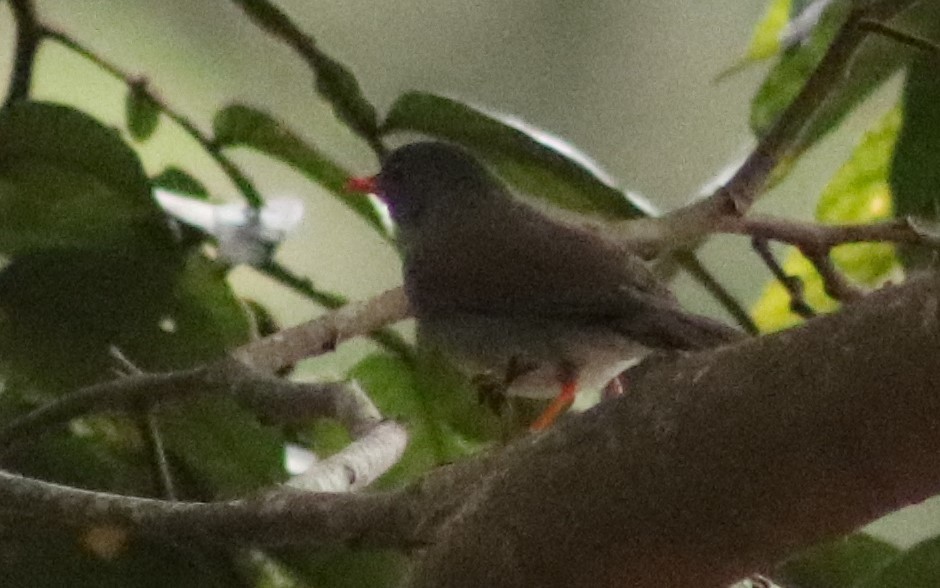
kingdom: Animalia
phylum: Chordata
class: Aves
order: Passeriformes
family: Turdidae
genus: Catharus
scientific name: Catharus aurantiirostris
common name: Orange-billed nightingale-thrush
